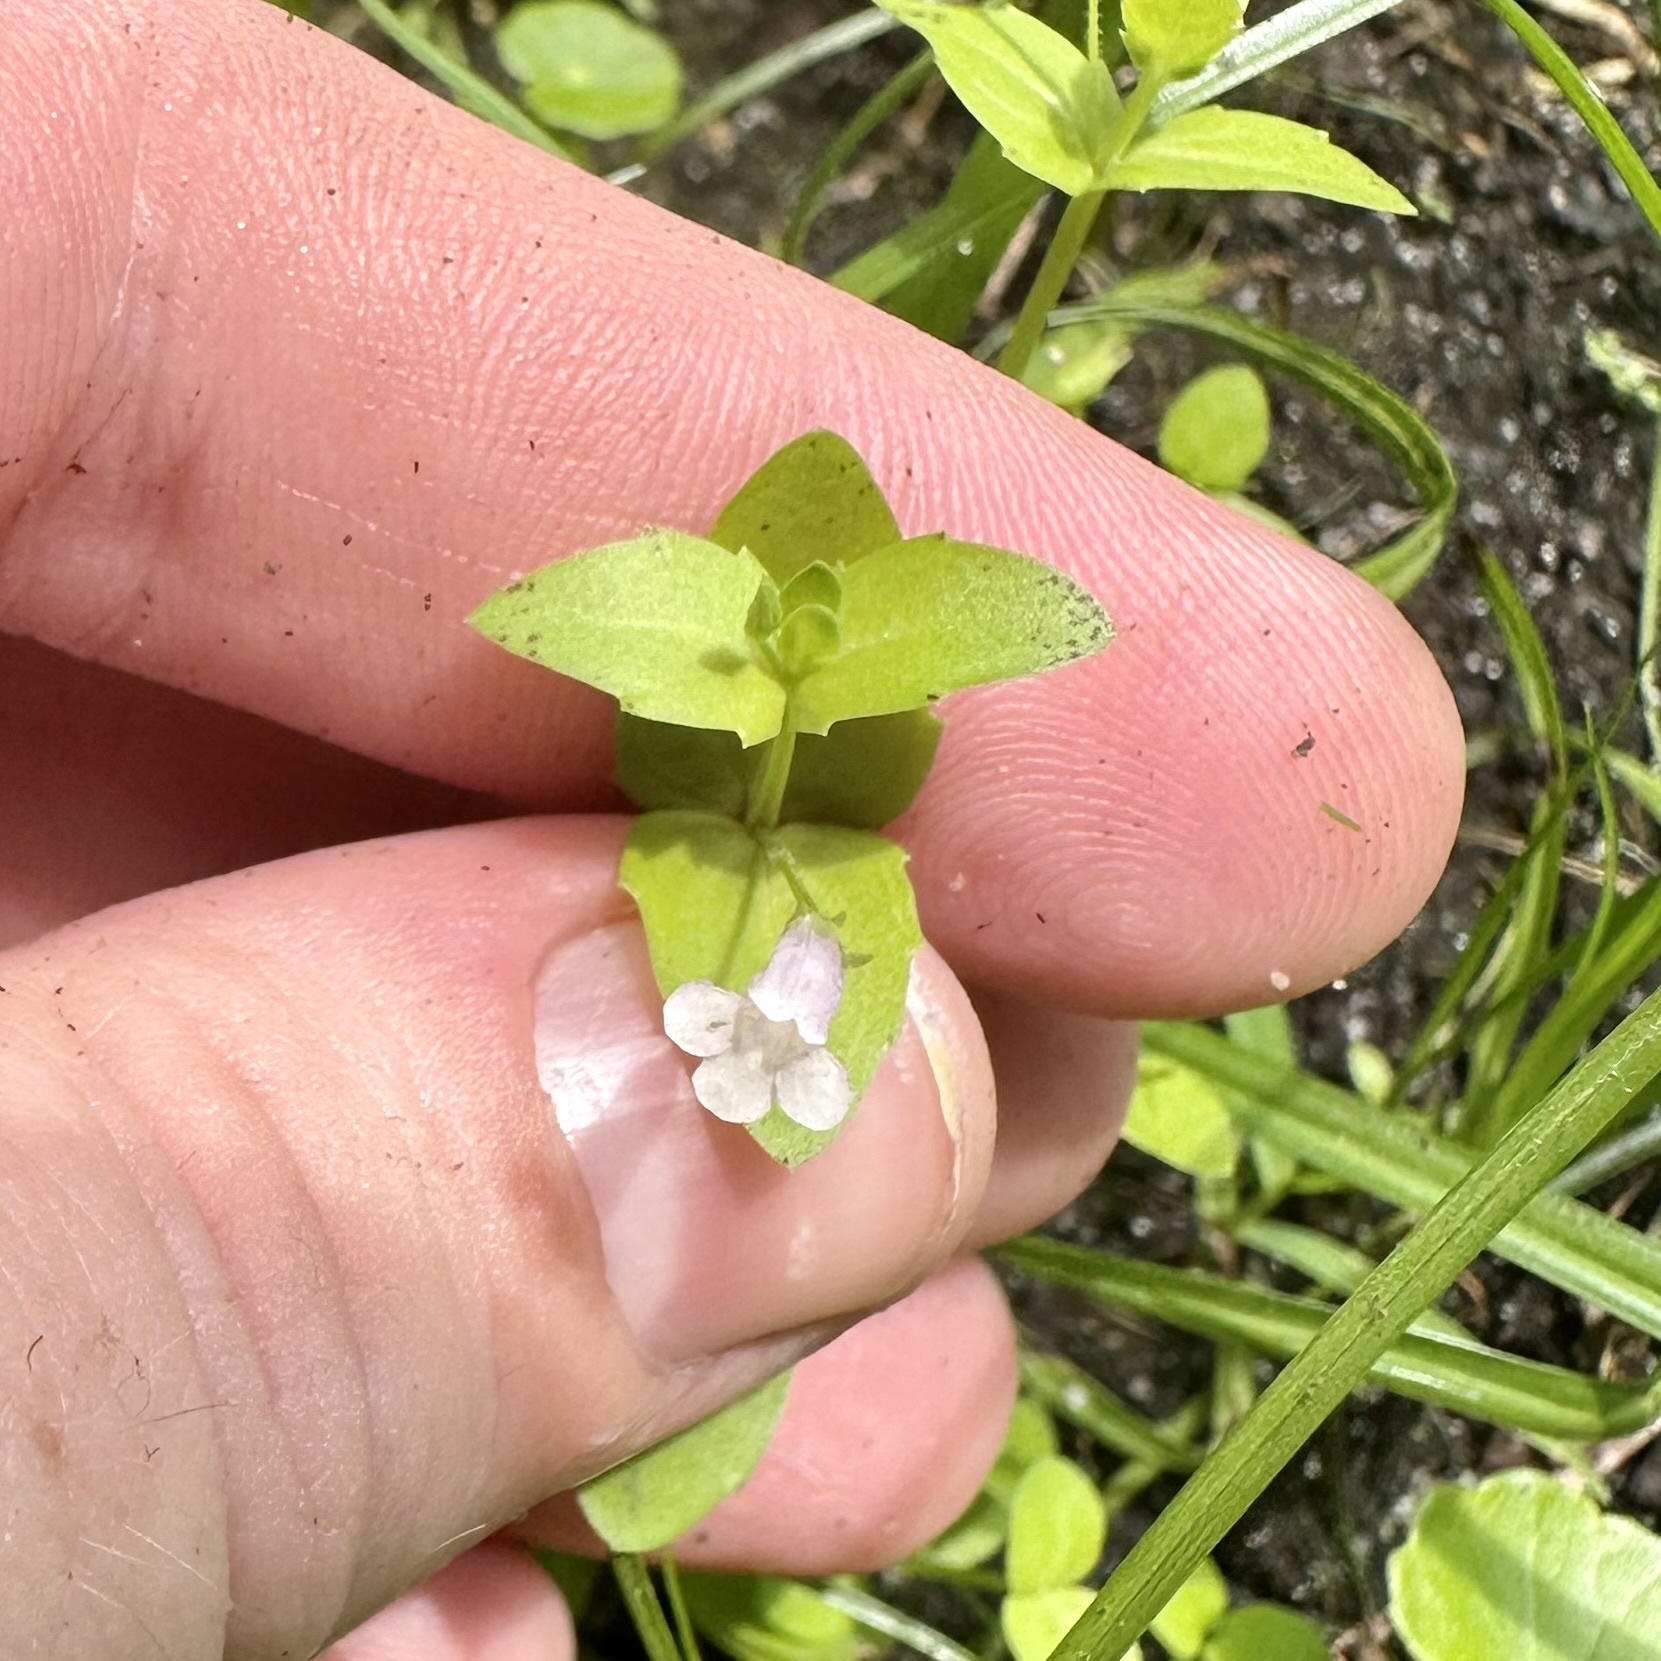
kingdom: Plantae
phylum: Tracheophyta
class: Magnoliopsida
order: Lamiales
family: Linderniaceae
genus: Lindernia
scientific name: Lindernia dubia
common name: Annual false pimpernel
